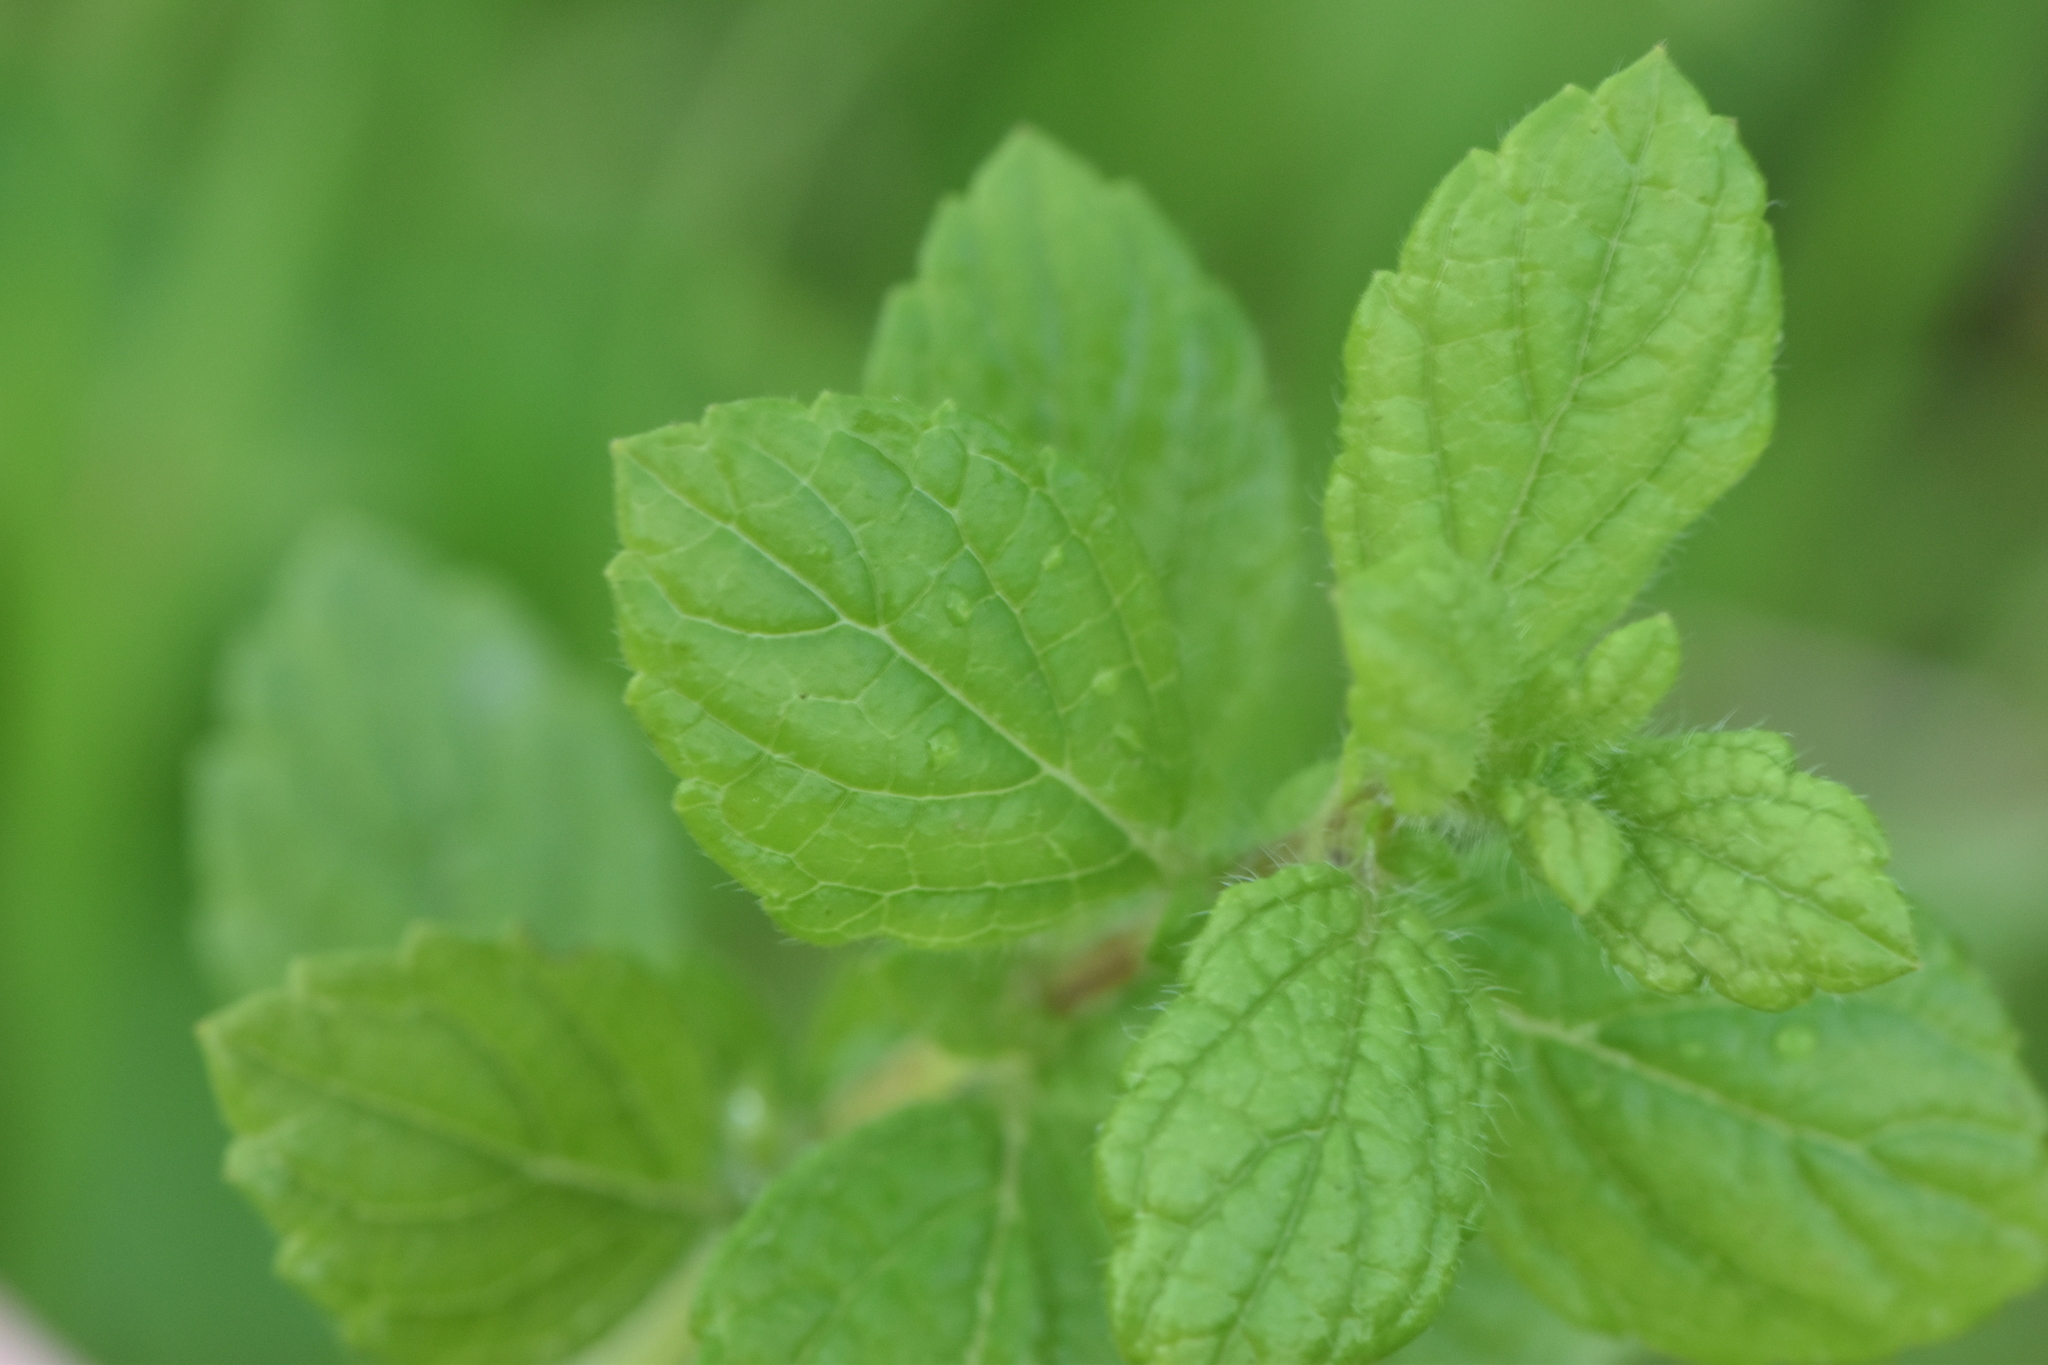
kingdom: Plantae
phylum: Tracheophyta
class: Magnoliopsida
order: Lamiales
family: Lamiaceae
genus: Melissa
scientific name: Melissa officinalis
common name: Balm
